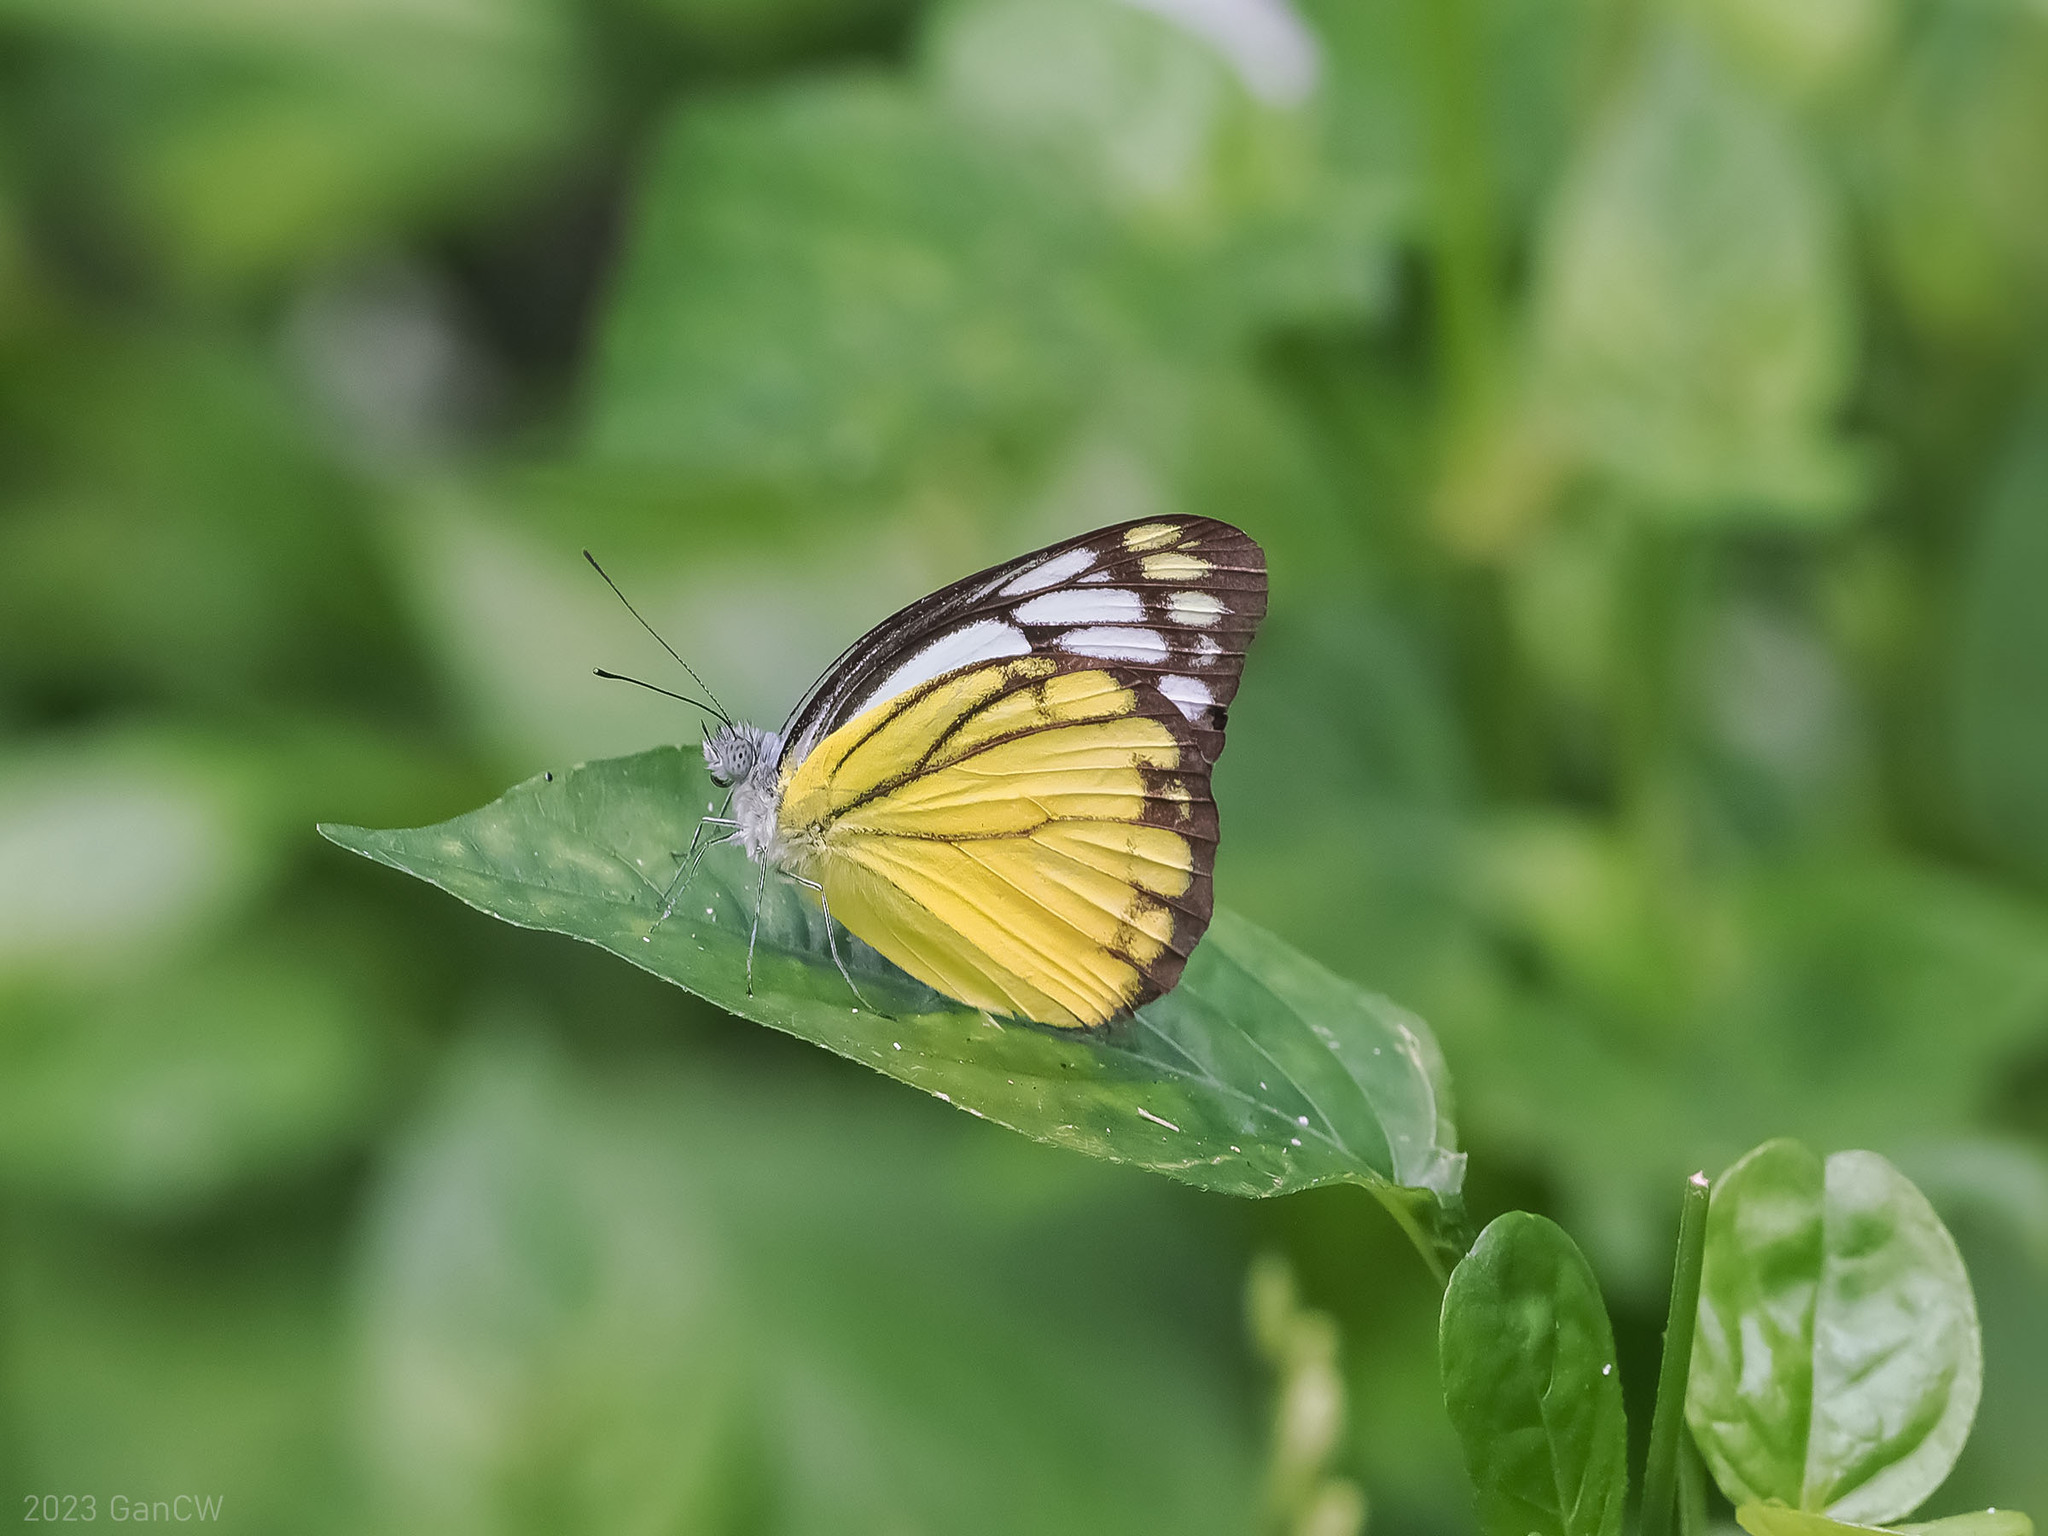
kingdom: Animalia
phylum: Arthropoda
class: Insecta
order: Lepidoptera
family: Pieridae
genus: Cepora
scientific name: Cepora aspasia
